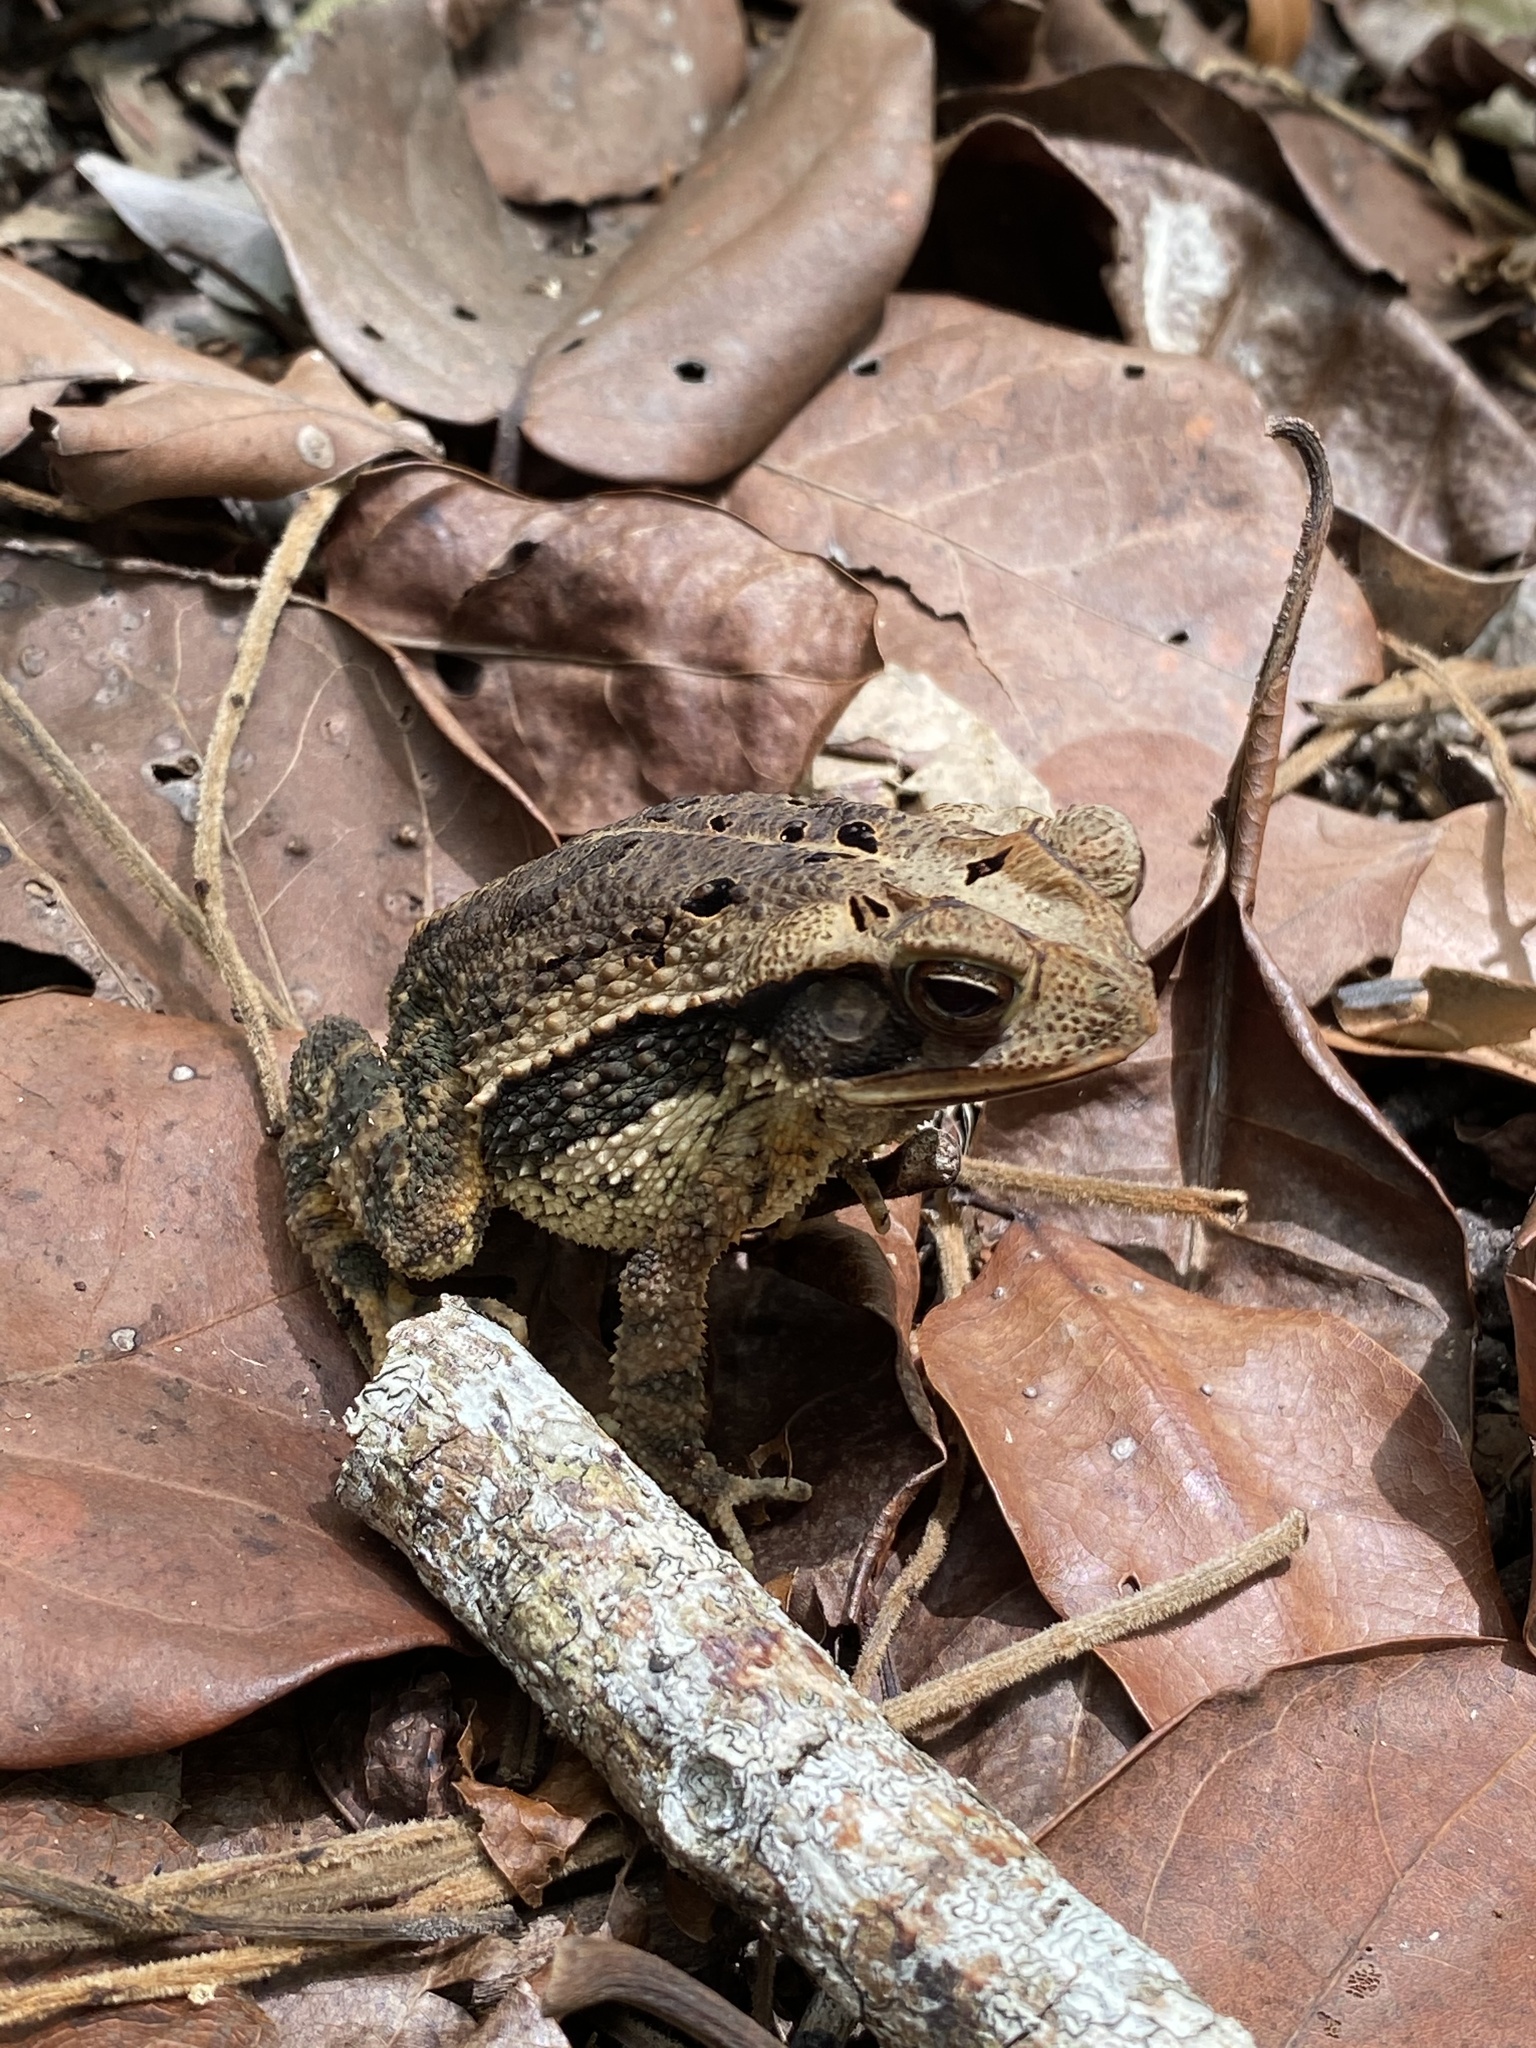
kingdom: Animalia
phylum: Chordata
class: Amphibia
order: Anura
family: Bufonidae
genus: Incilius
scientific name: Incilius valliceps
